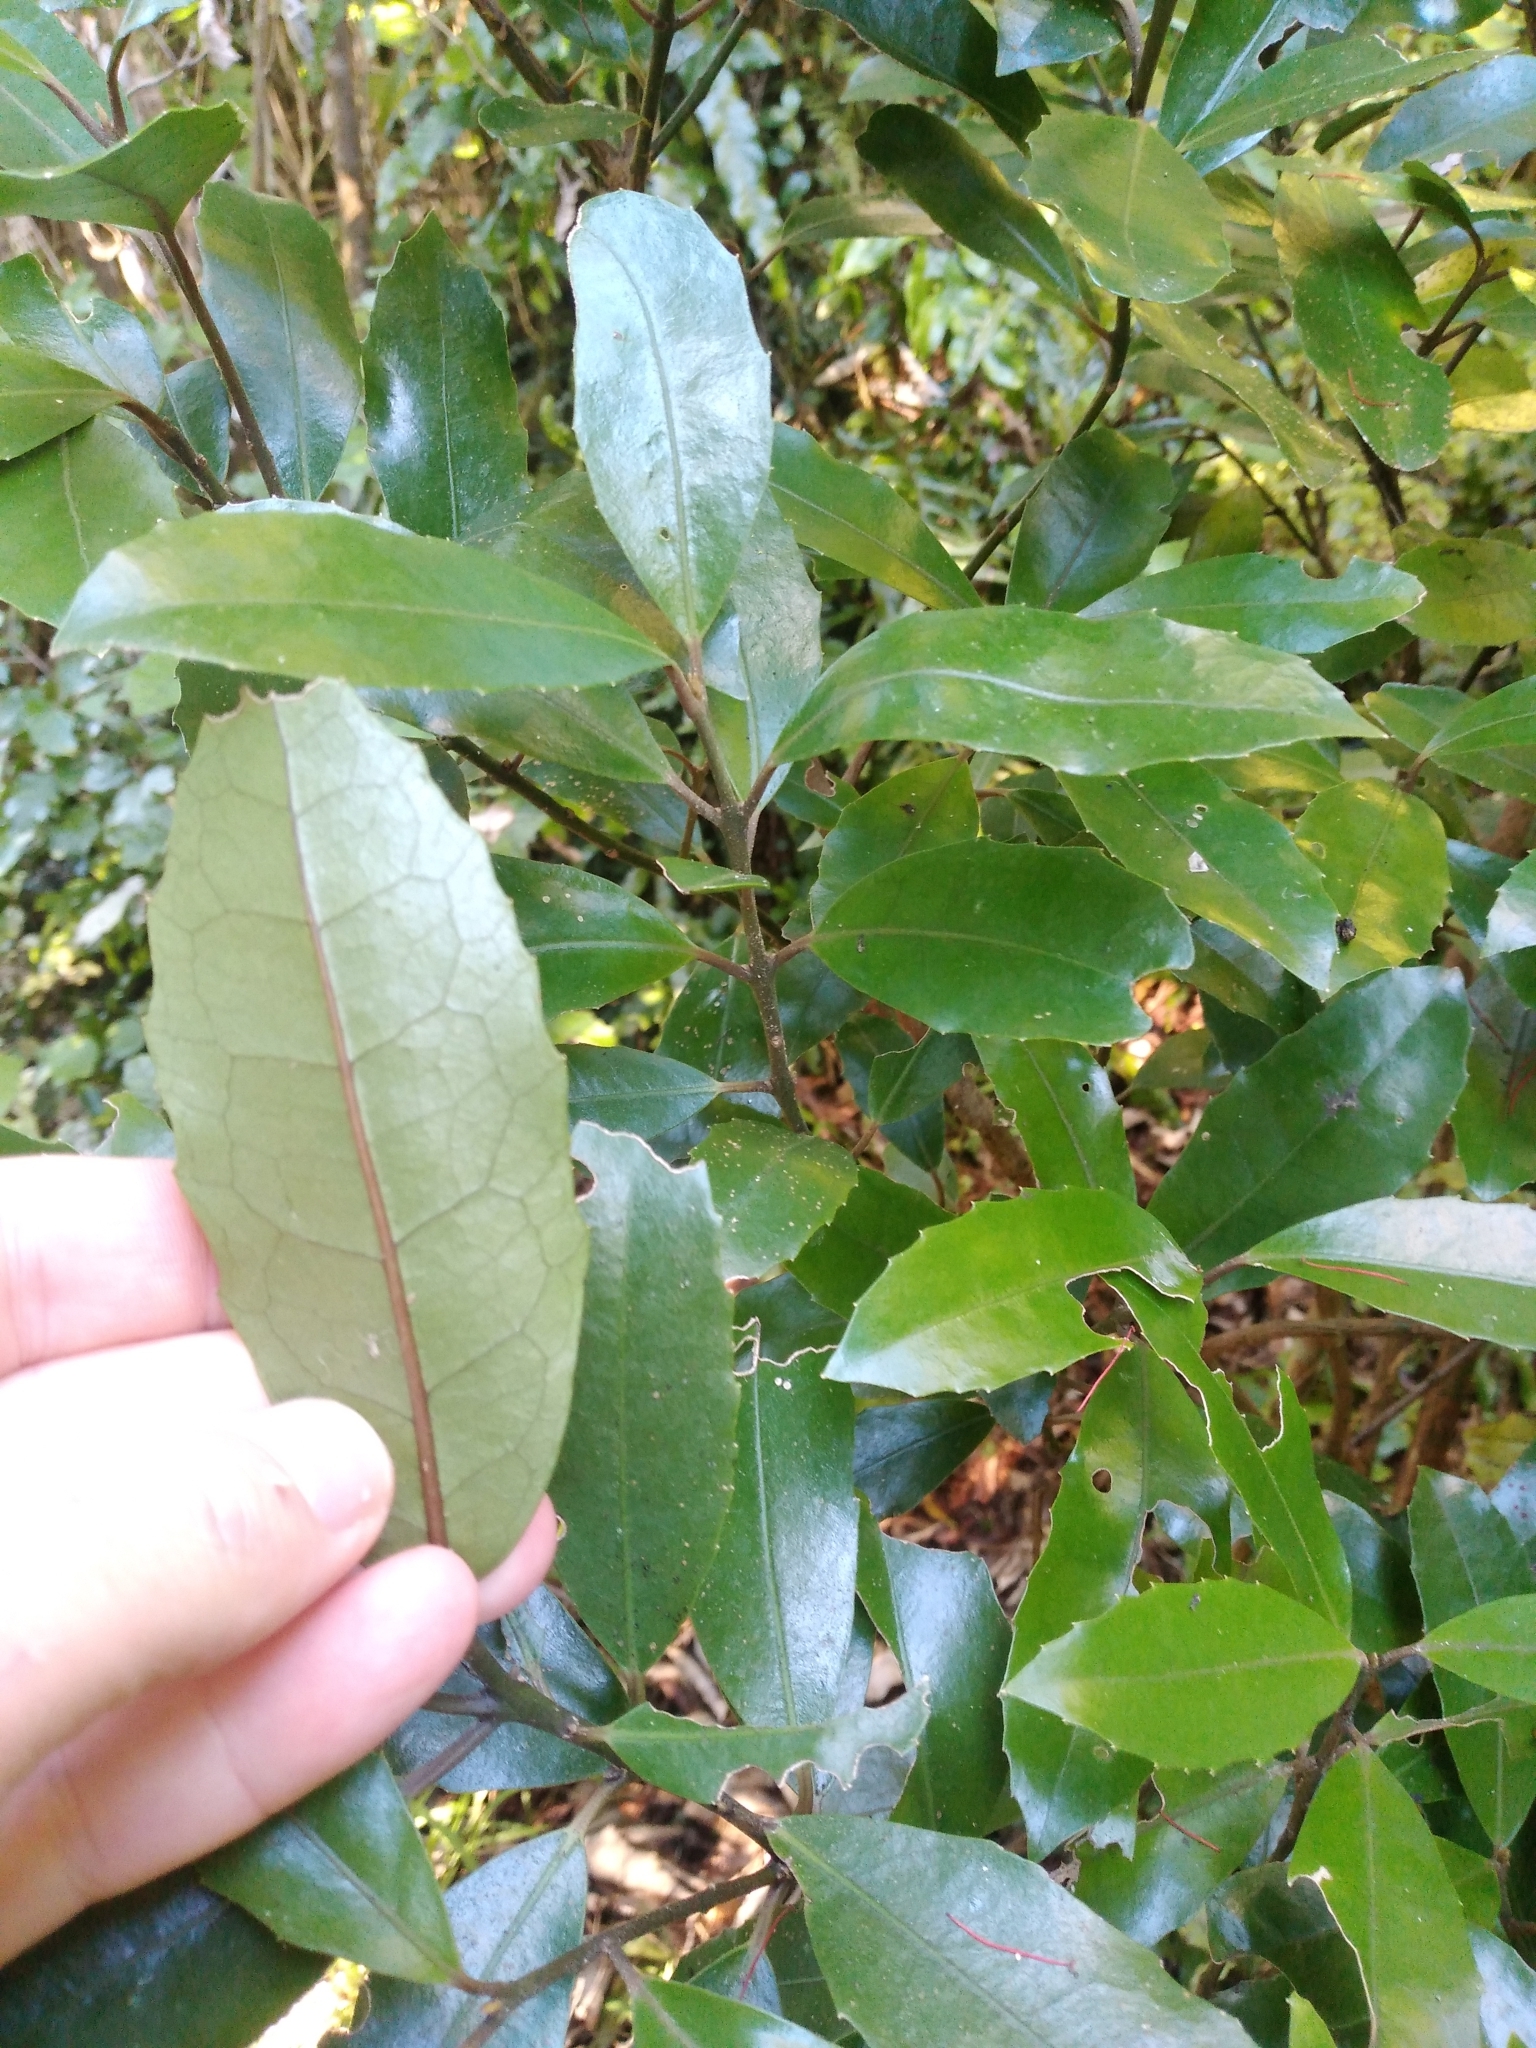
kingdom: Plantae
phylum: Tracheophyta
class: Magnoliopsida
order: Laurales
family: Monimiaceae
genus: Hedycarya
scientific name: Hedycarya arborea
